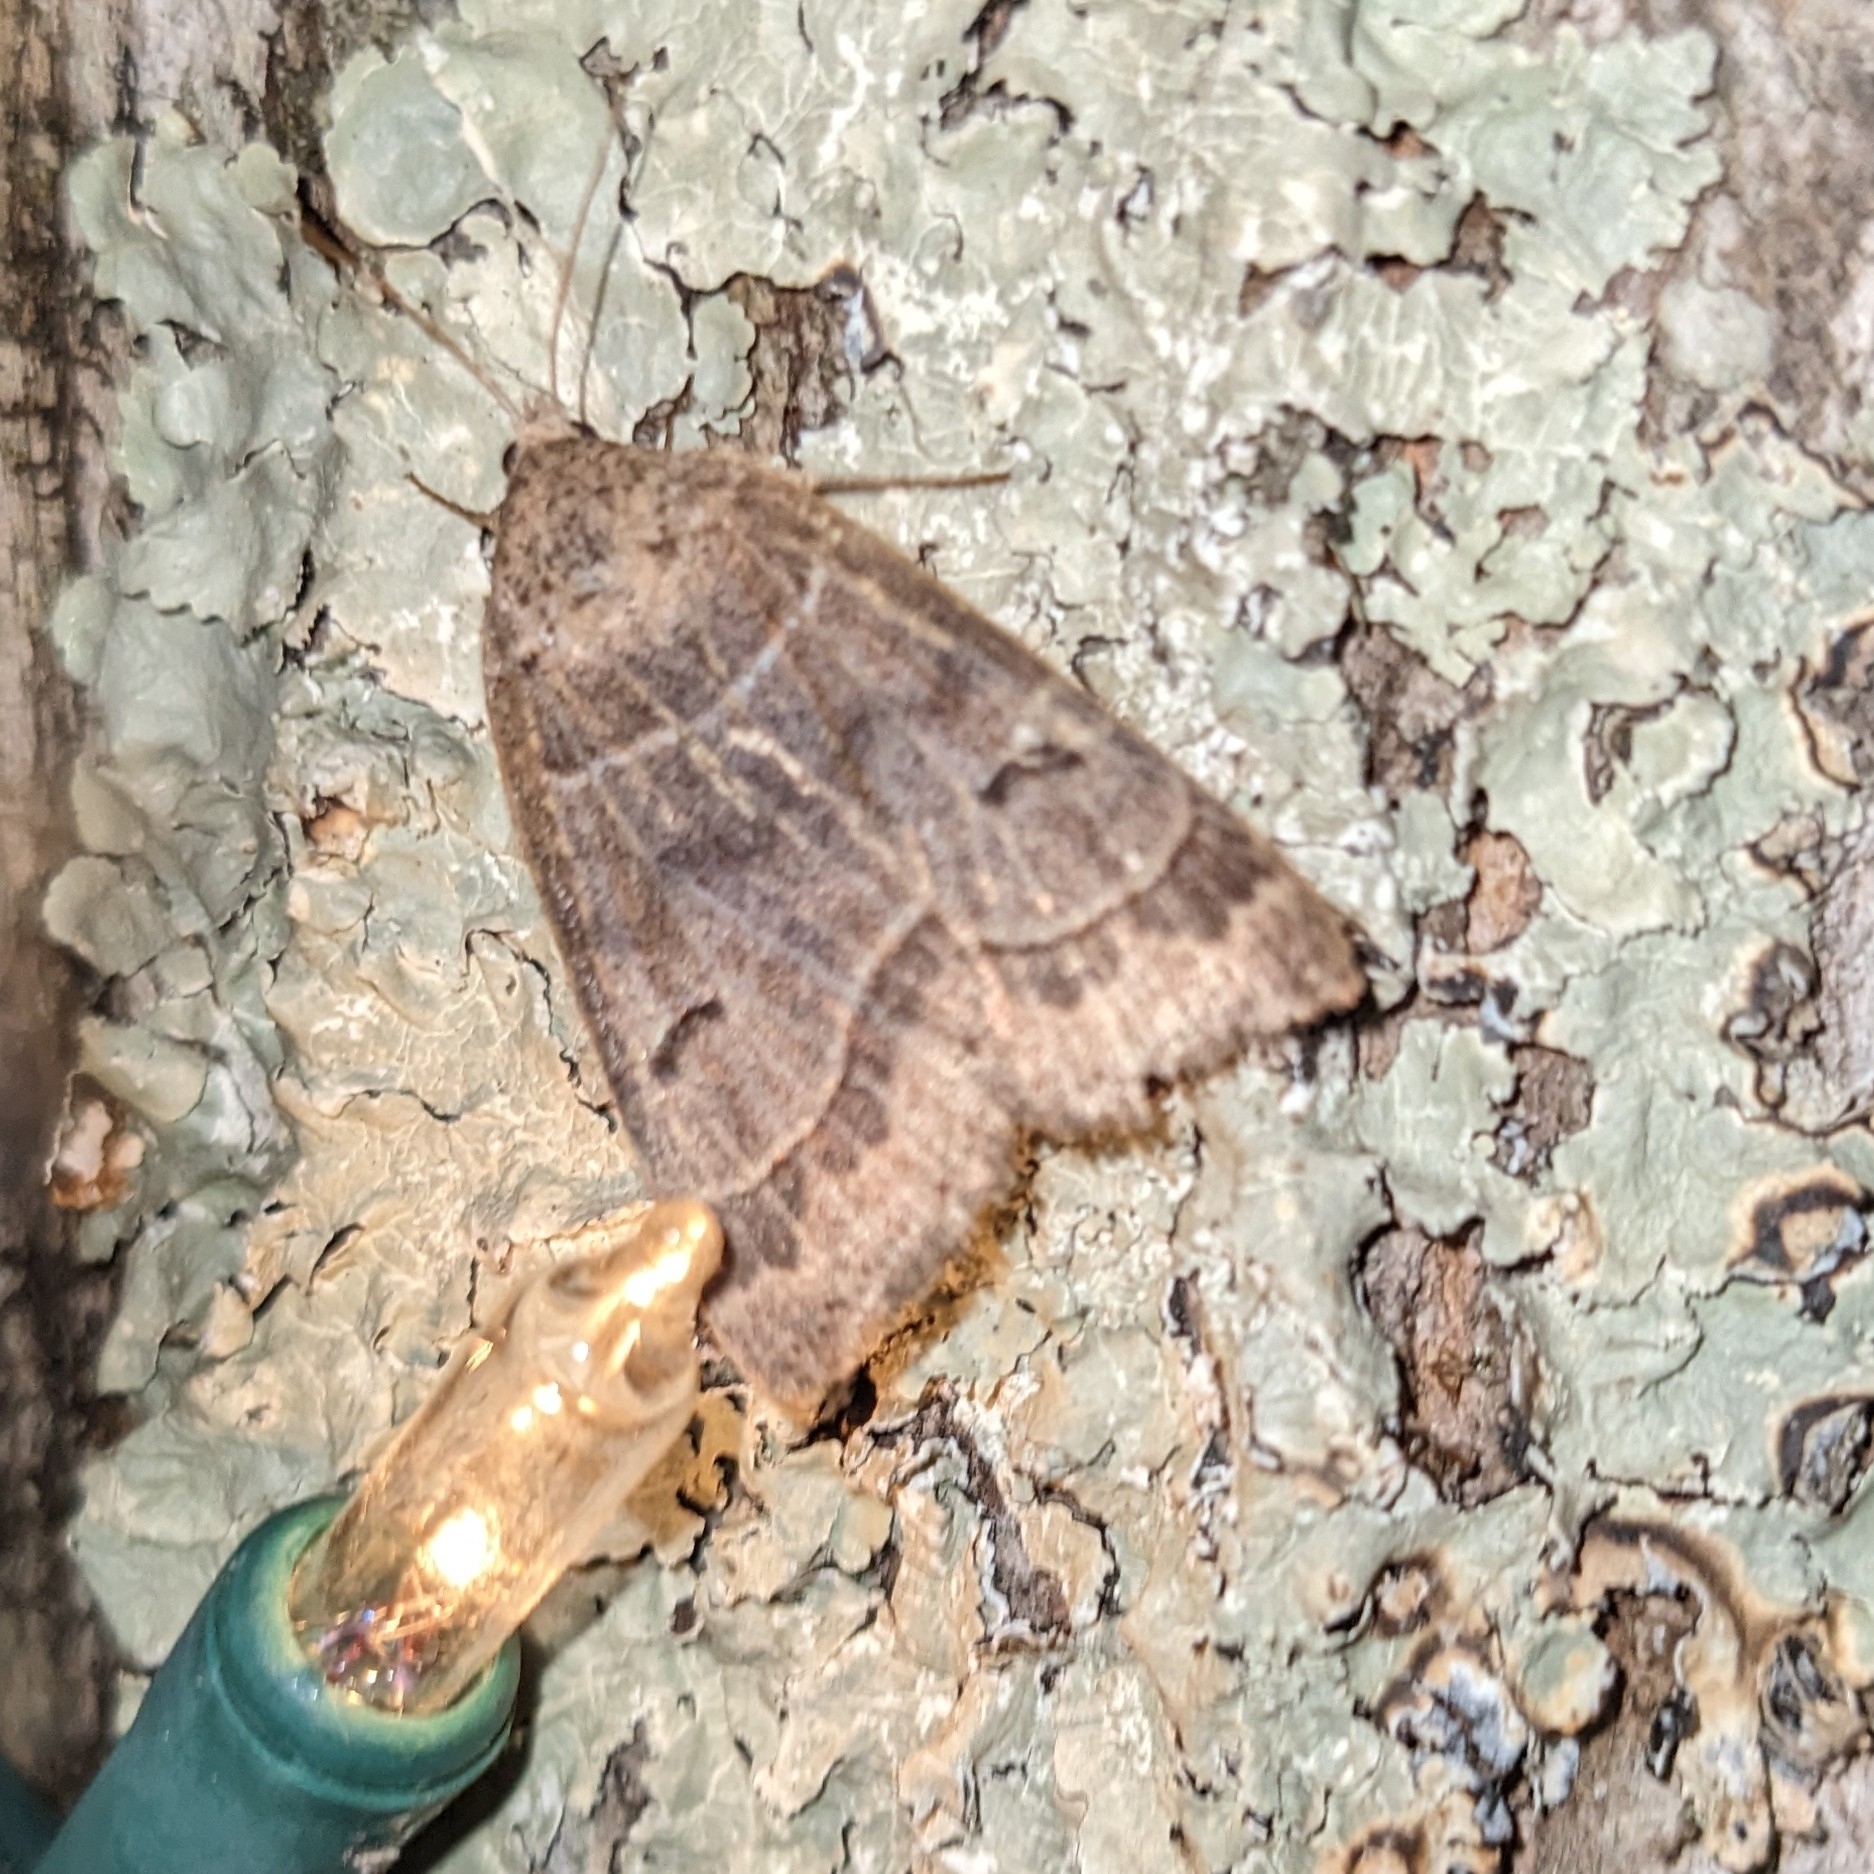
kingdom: Animalia
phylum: Arthropoda
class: Insecta
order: Lepidoptera
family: Erebidae
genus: Phoberia
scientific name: Phoberia atomaris
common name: Common oak moth
